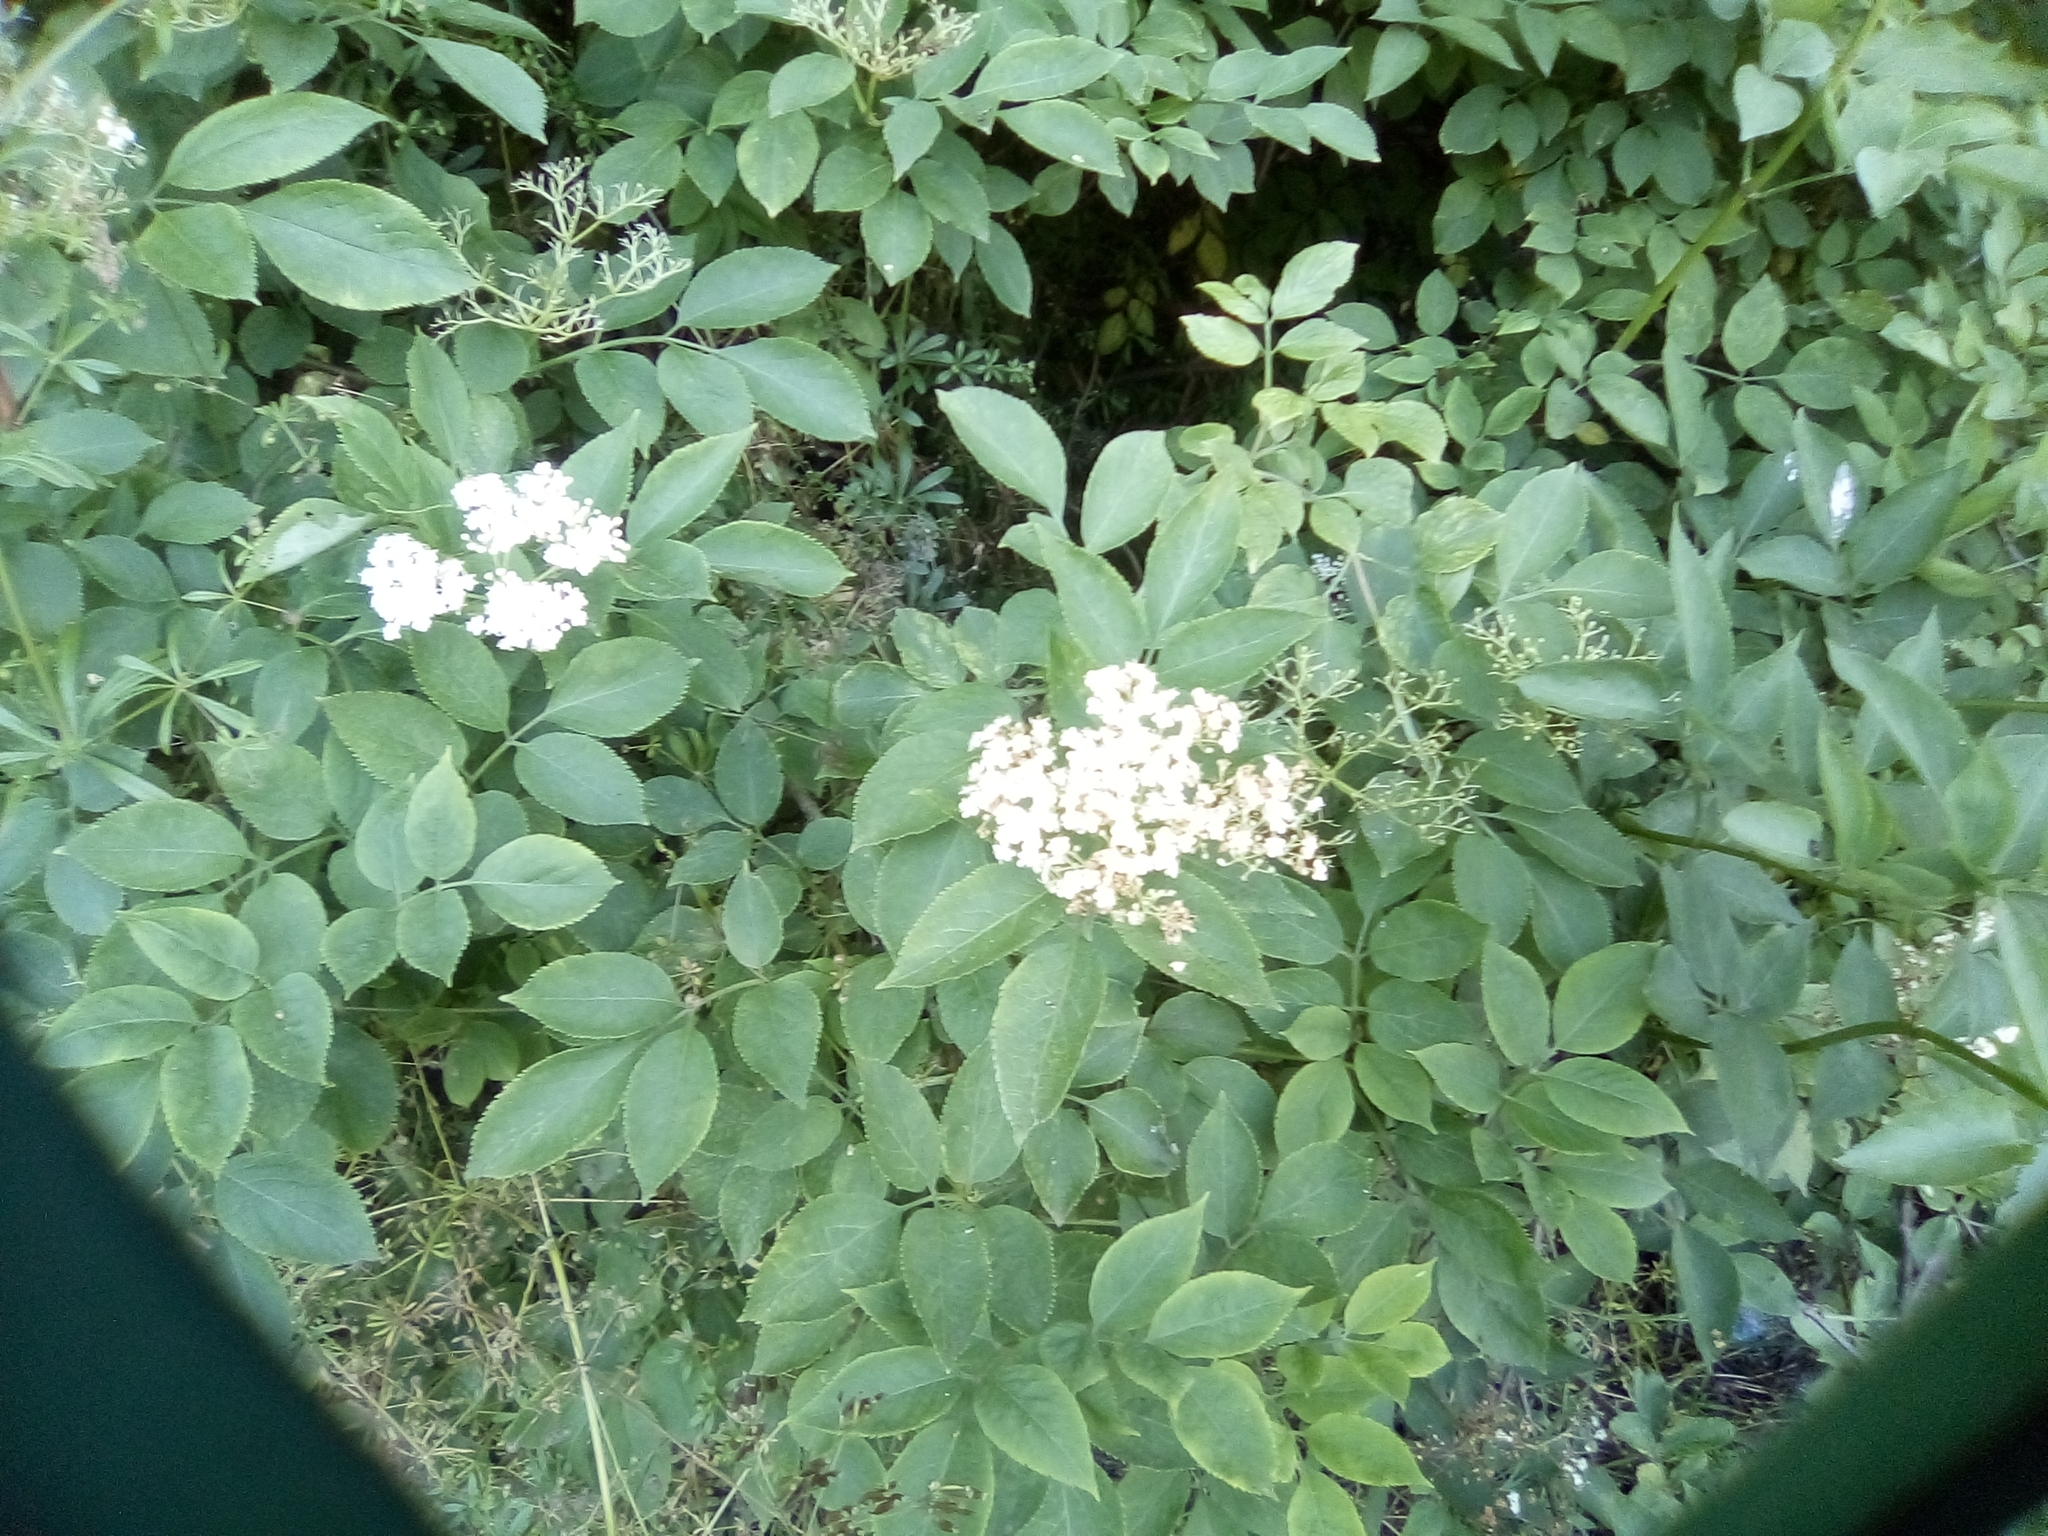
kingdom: Plantae
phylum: Tracheophyta
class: Magnoliopsida
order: Dipsacales
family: Viburnaceae
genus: Sambucus
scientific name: Sambucus nigra
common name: Elder
